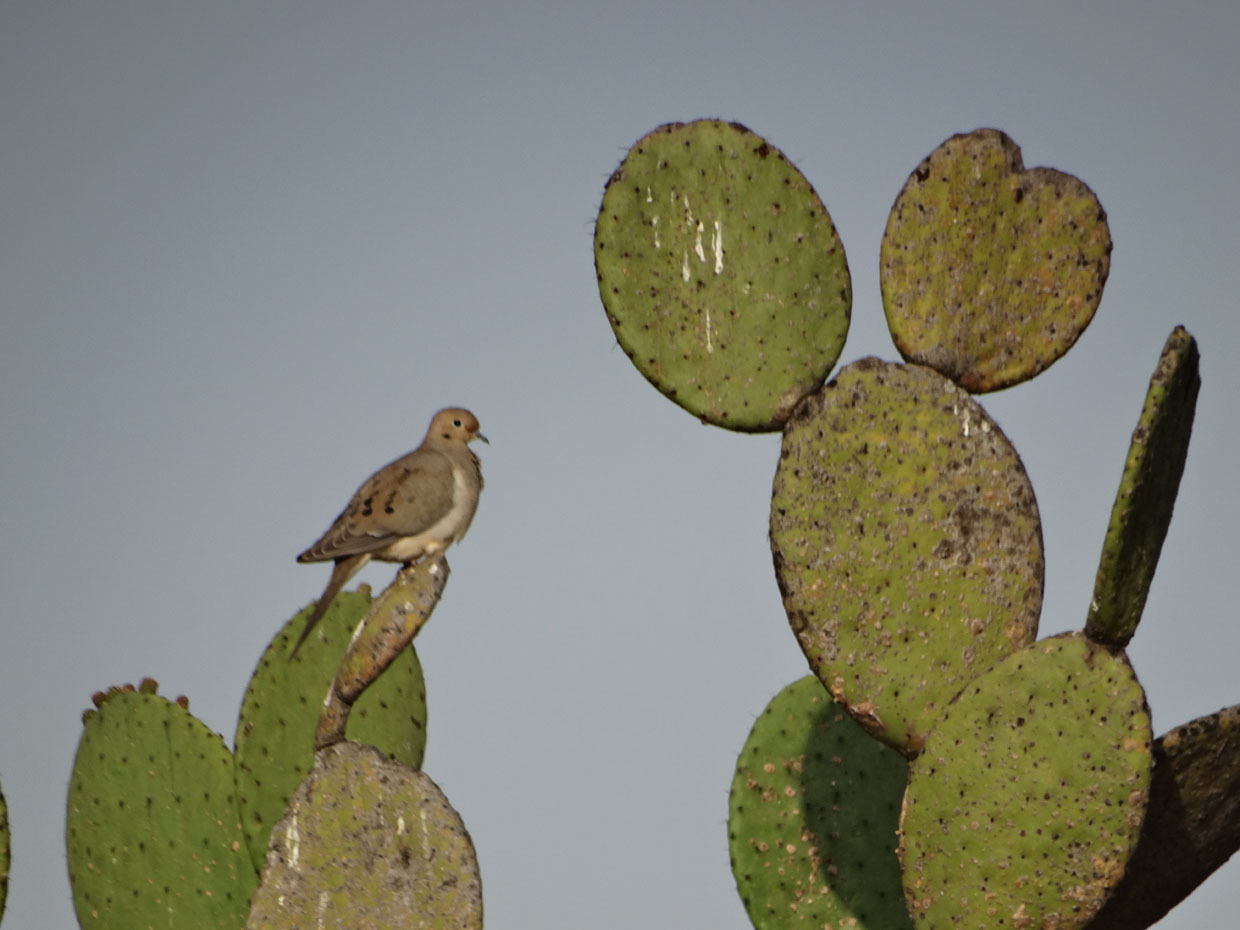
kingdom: Animalia
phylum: Chordata
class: Aves
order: Columbiformes
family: Columbidae
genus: Zenaida
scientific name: Zenaida macroura
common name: Mourning dove
